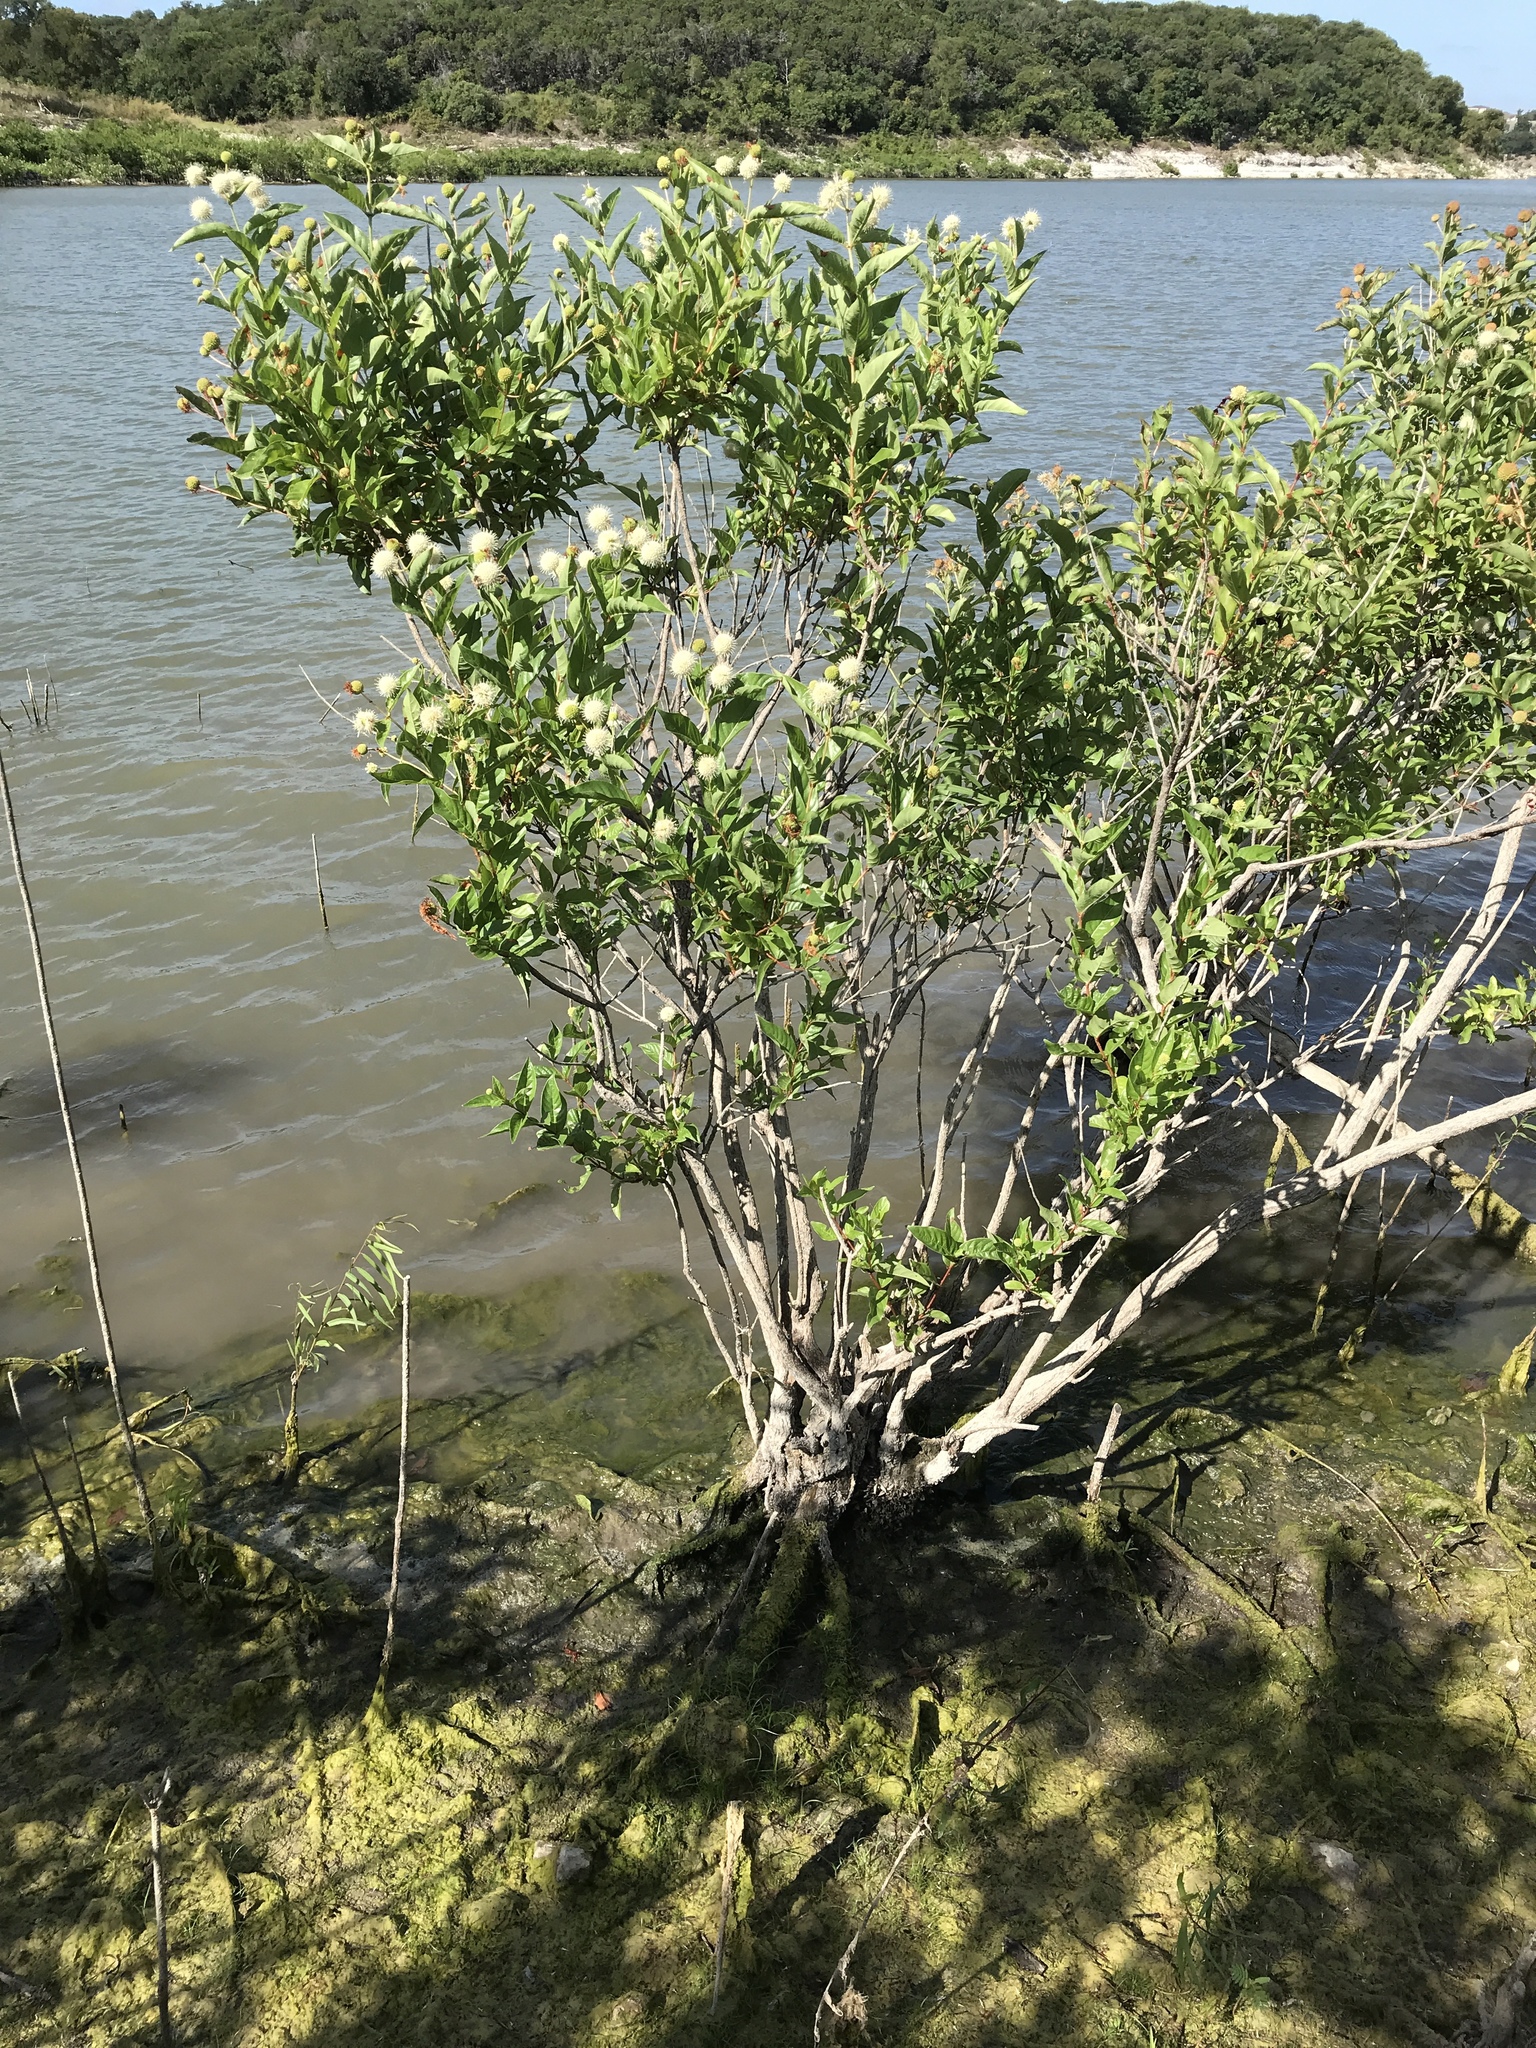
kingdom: Plantae
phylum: Tracheophyta
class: Magnoliopsida
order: Gentianales
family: Rubiaceae
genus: Cephalanthus
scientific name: Cephalanthus occidentalis
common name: Button-willow
